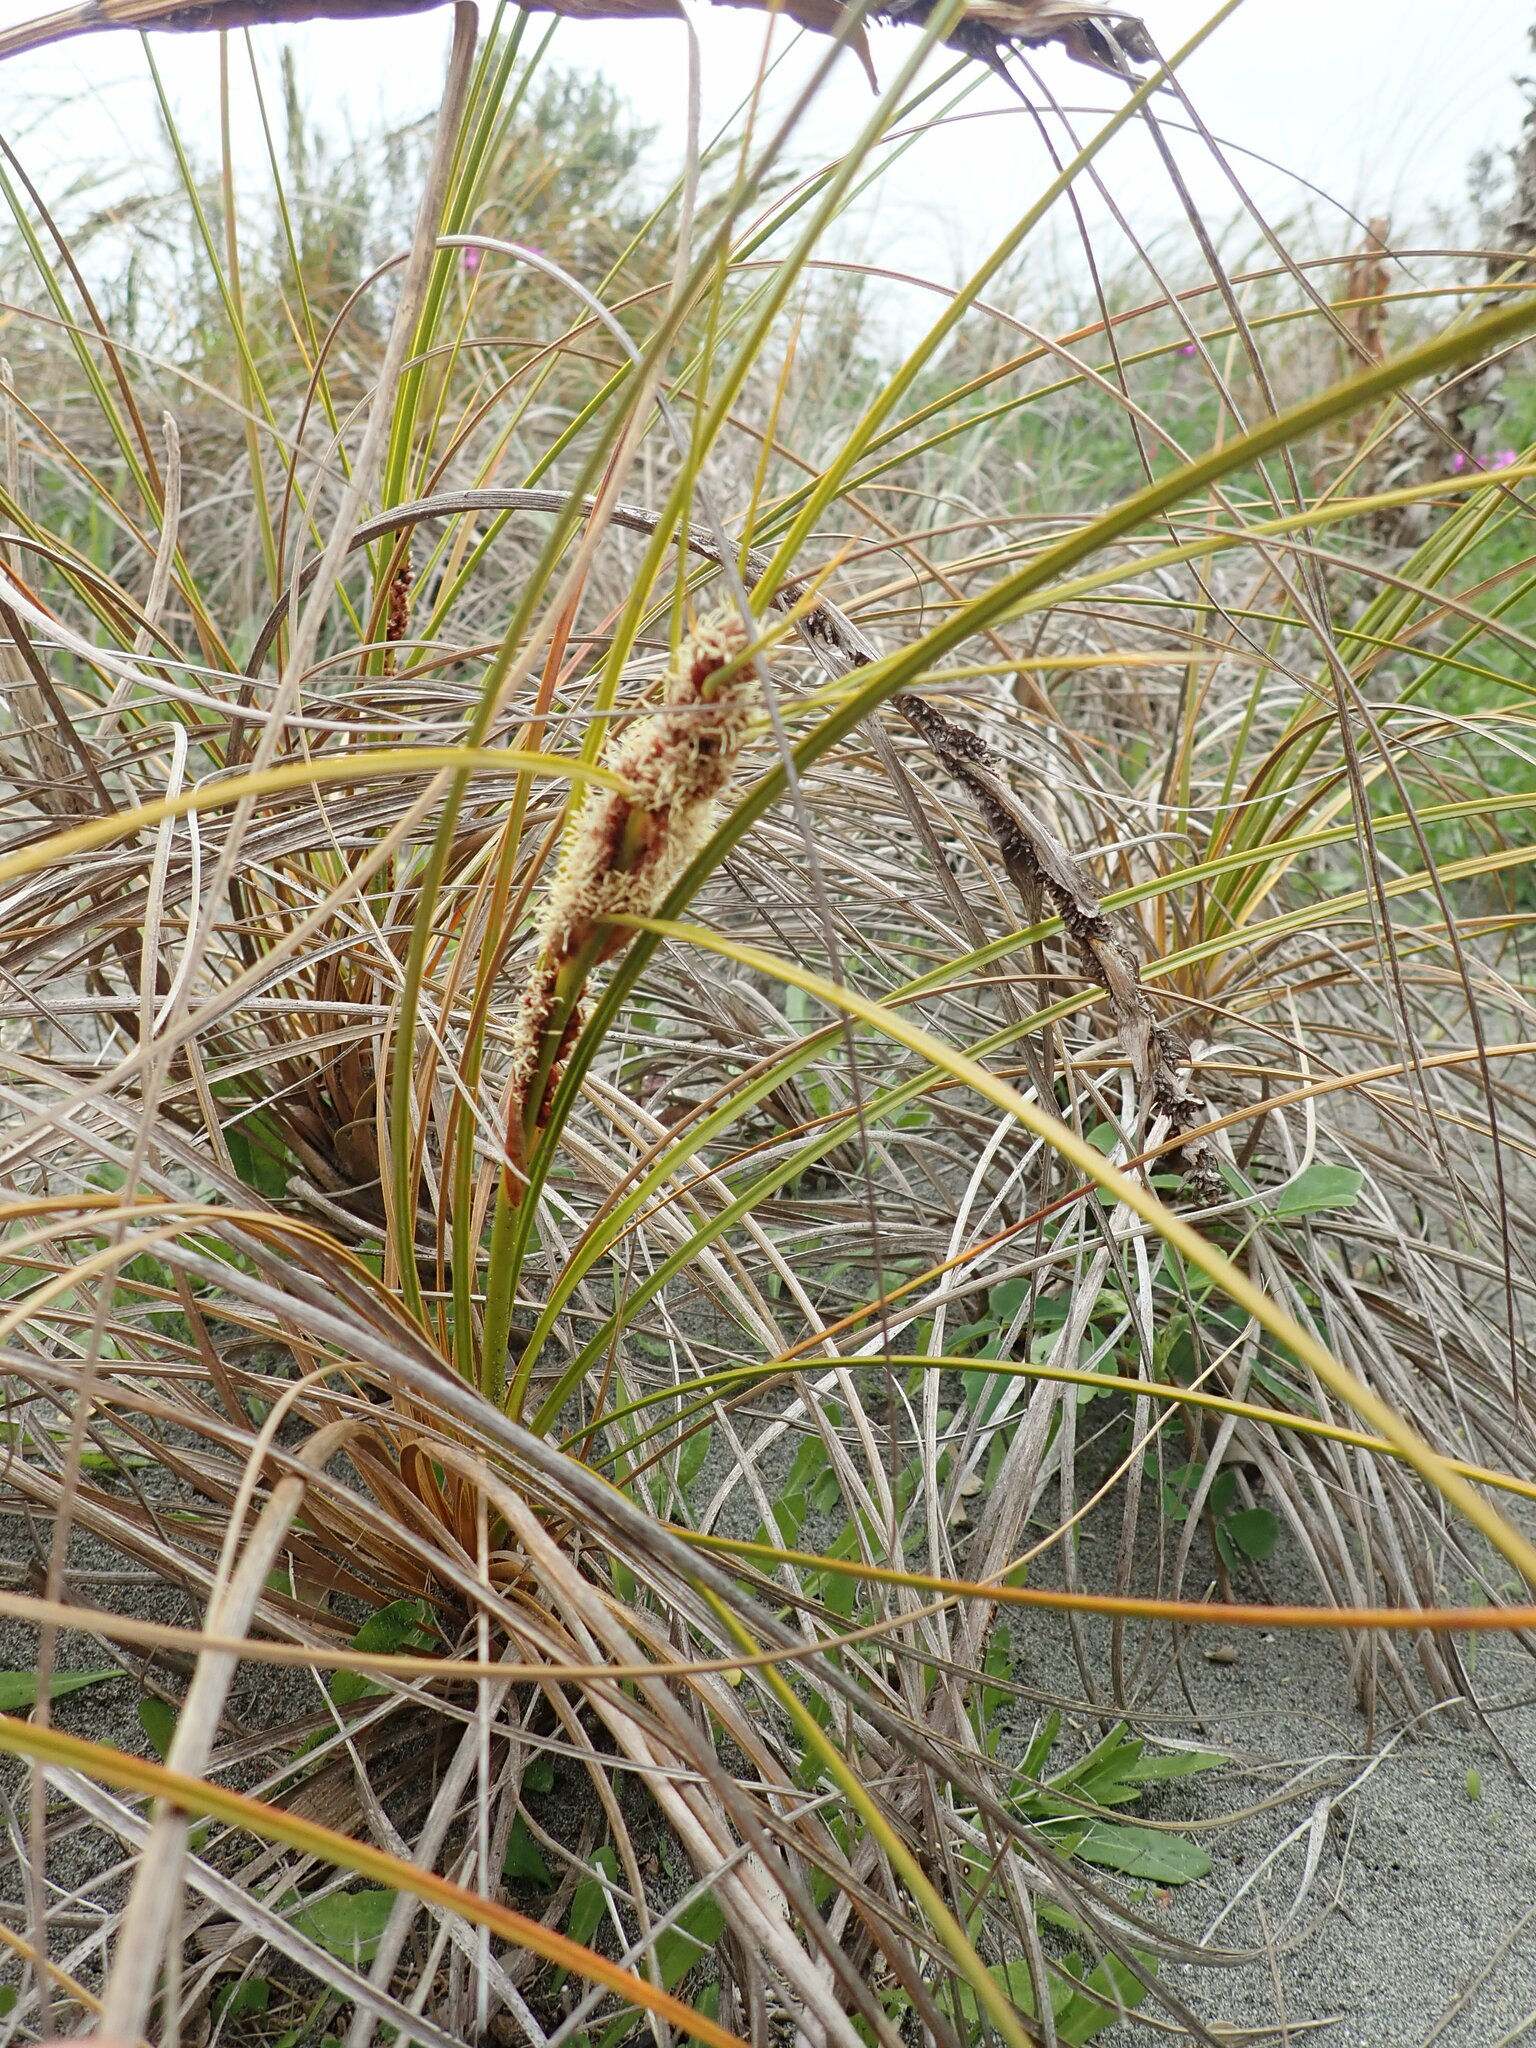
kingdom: Plantae
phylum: Tracheophyta
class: Liliopsida
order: Poales
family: Cyperaceae
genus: Ficinia
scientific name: Ficinia spiralis
